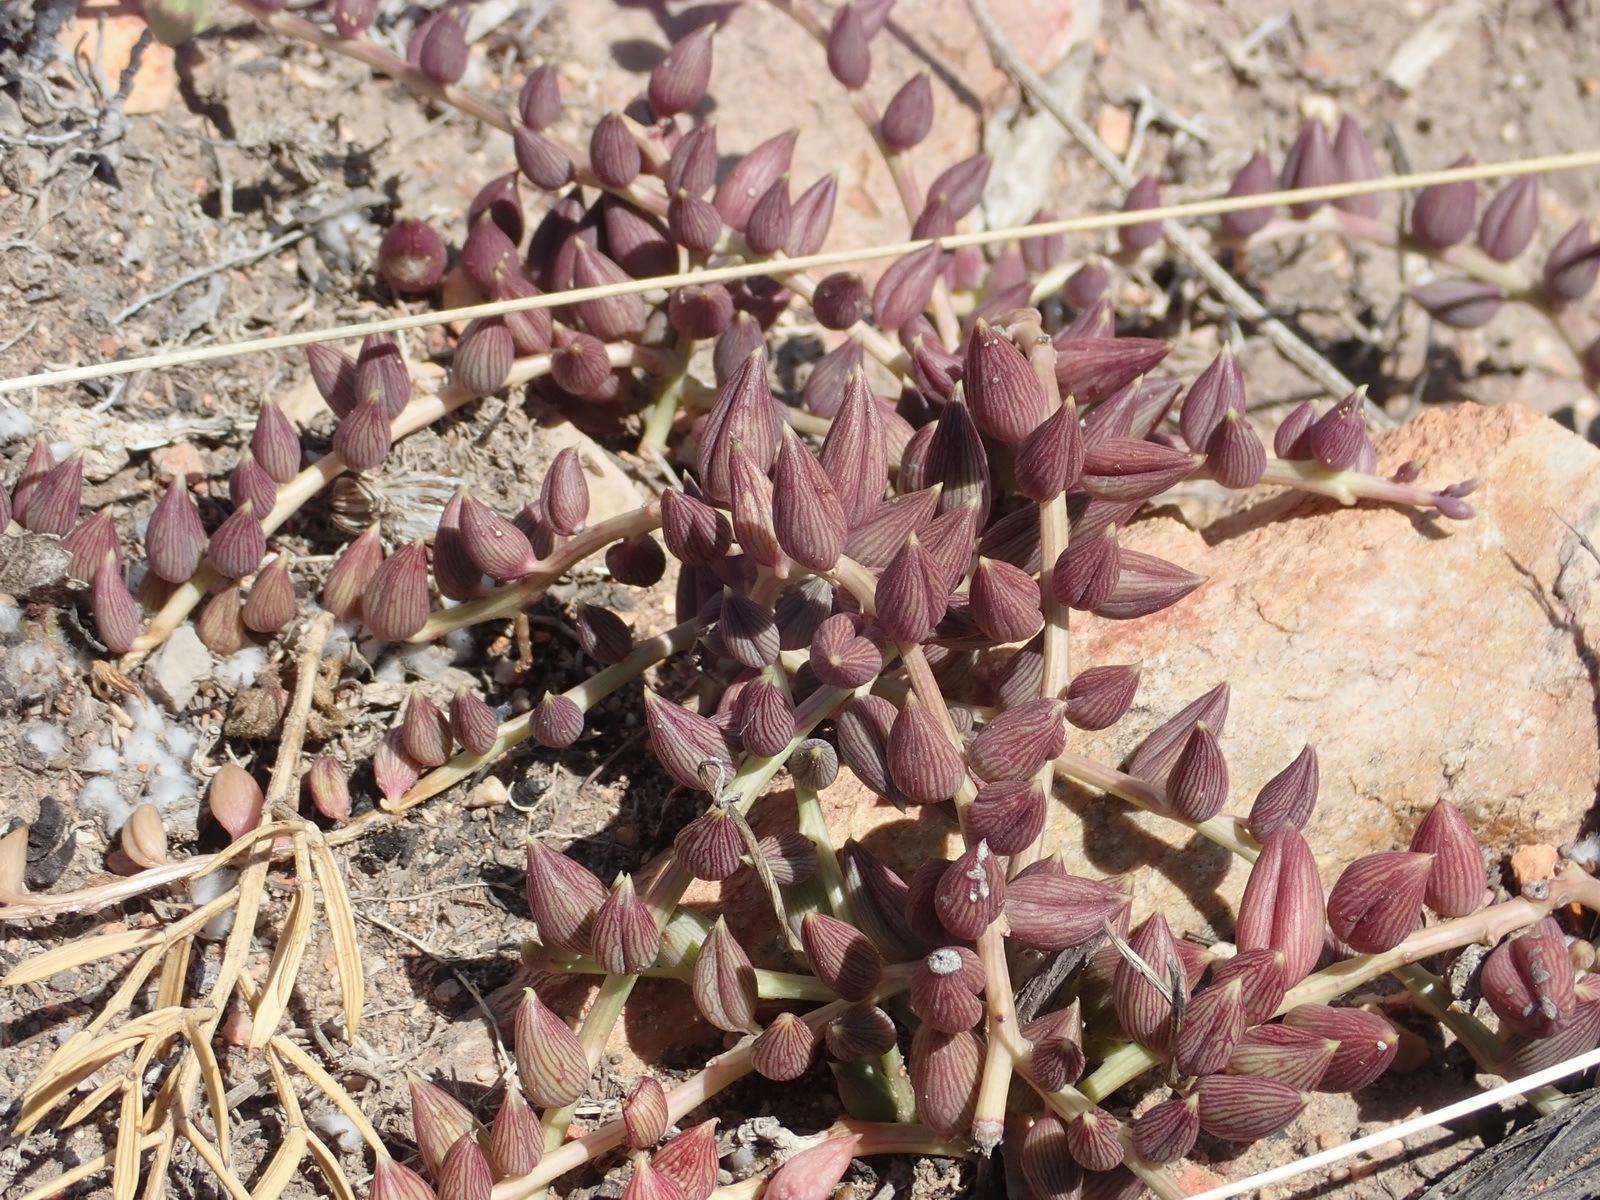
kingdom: Plantae
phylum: Tracheophyta
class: Magnoliopsida
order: Asterales
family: Asteraceae
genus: Curio
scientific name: Curio radicans
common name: Creeping-berry
